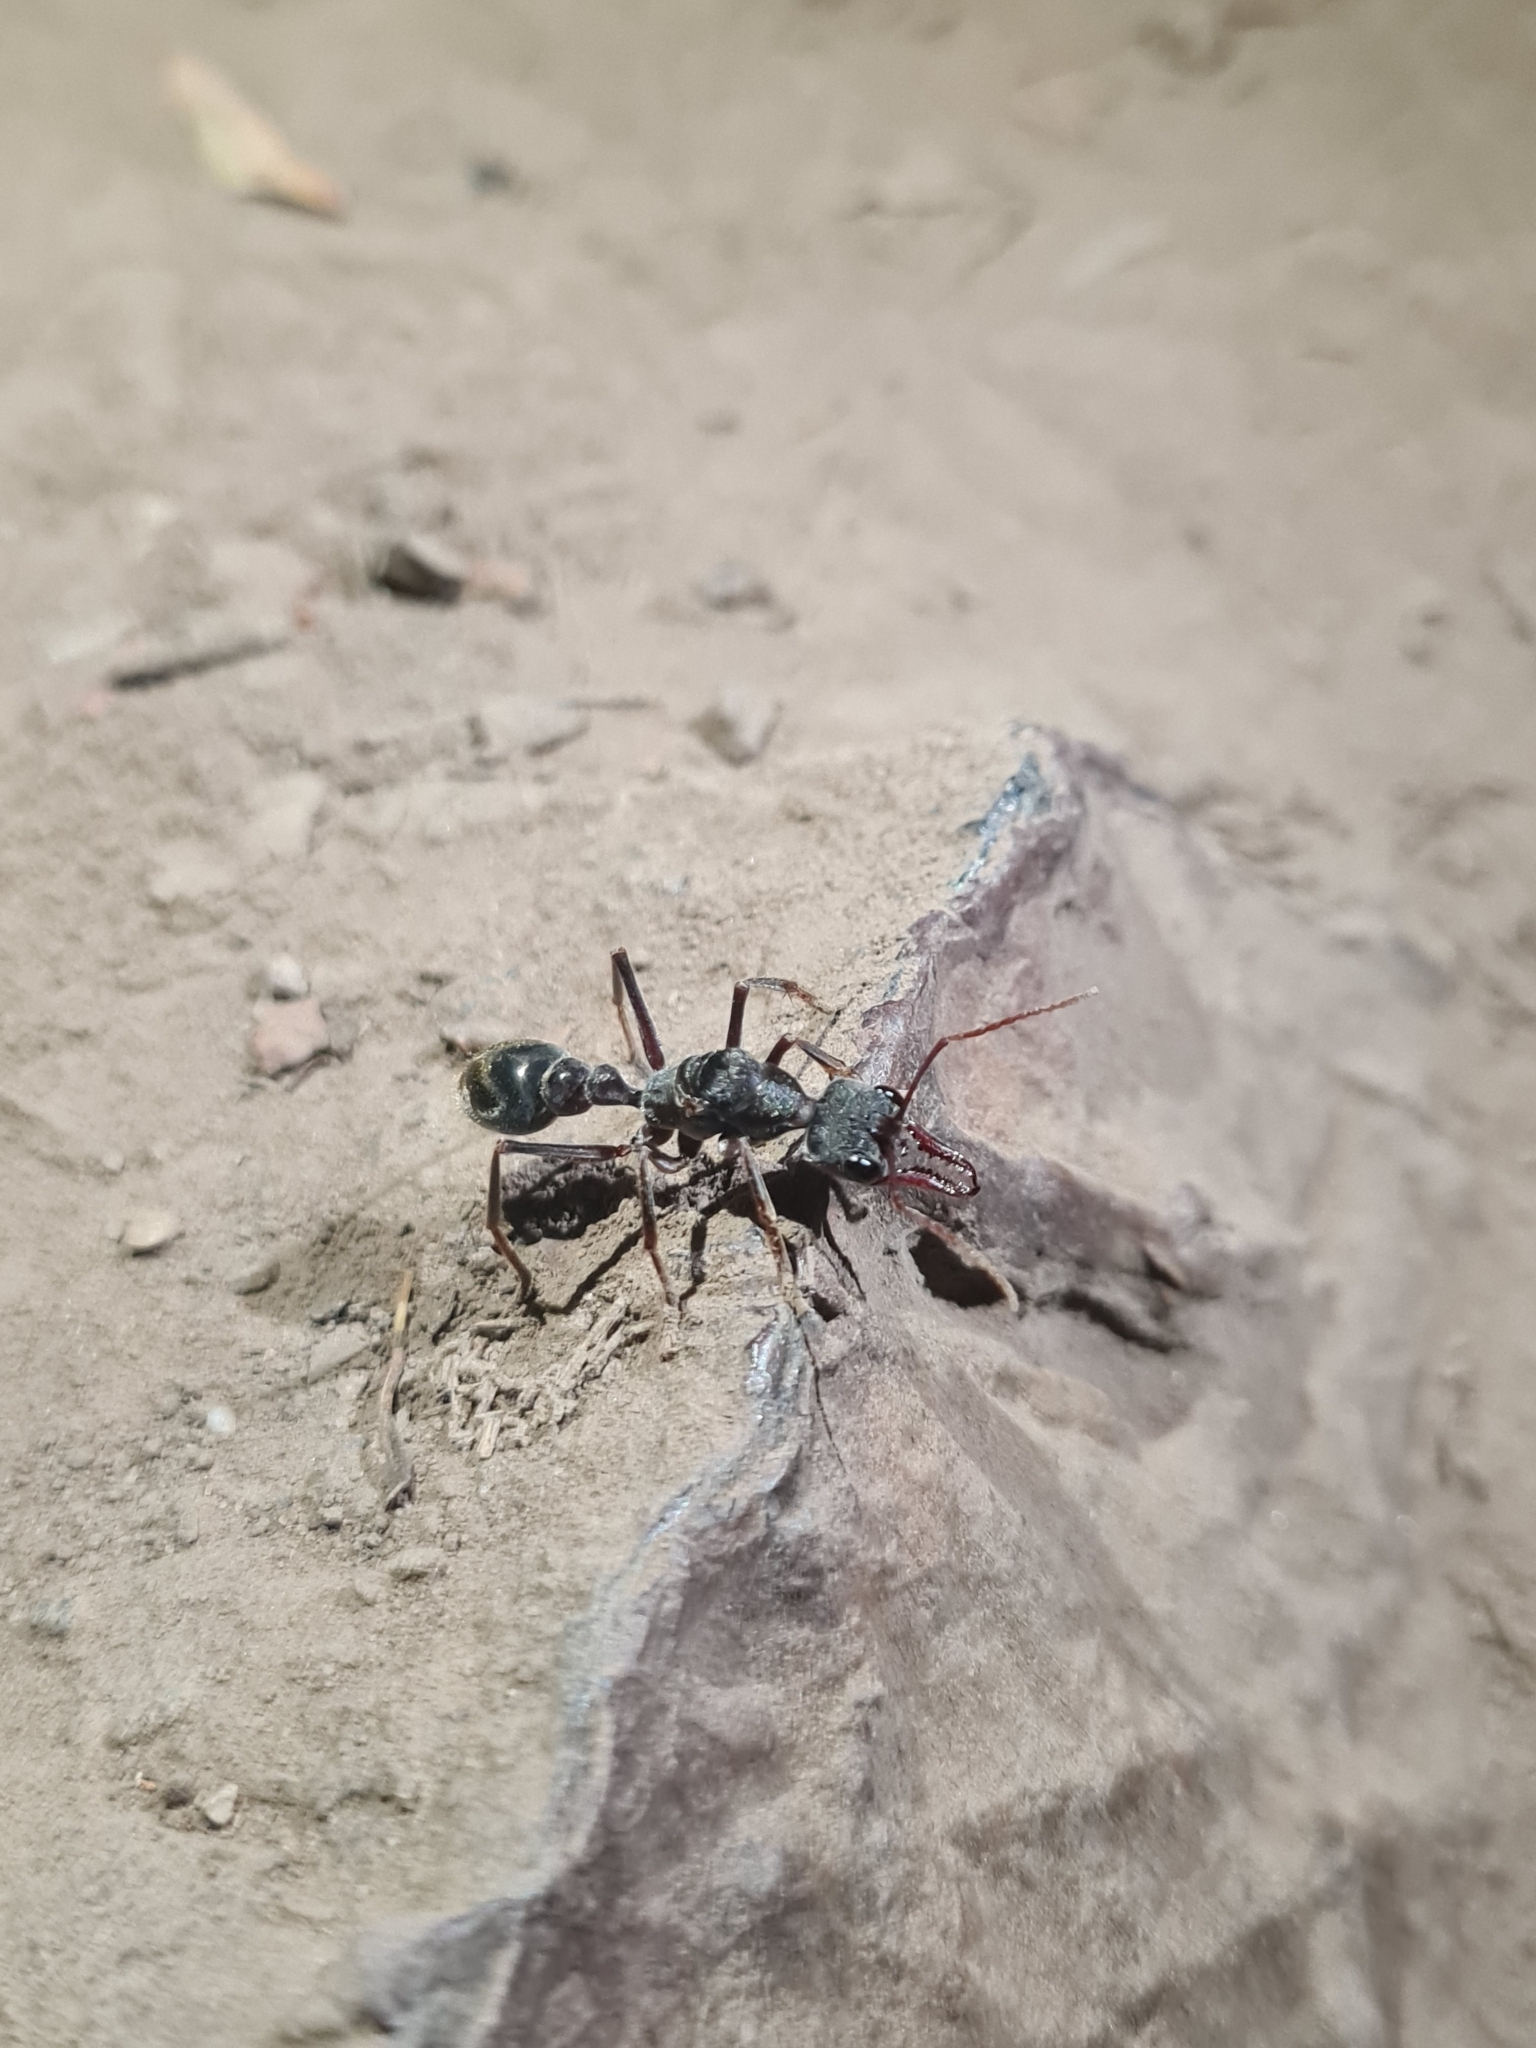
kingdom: Animalia
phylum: Arthropoda
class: Insecta
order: Hymenoptera
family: Formicidae
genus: Myrmecia
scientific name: Myrmecia pyriformis
